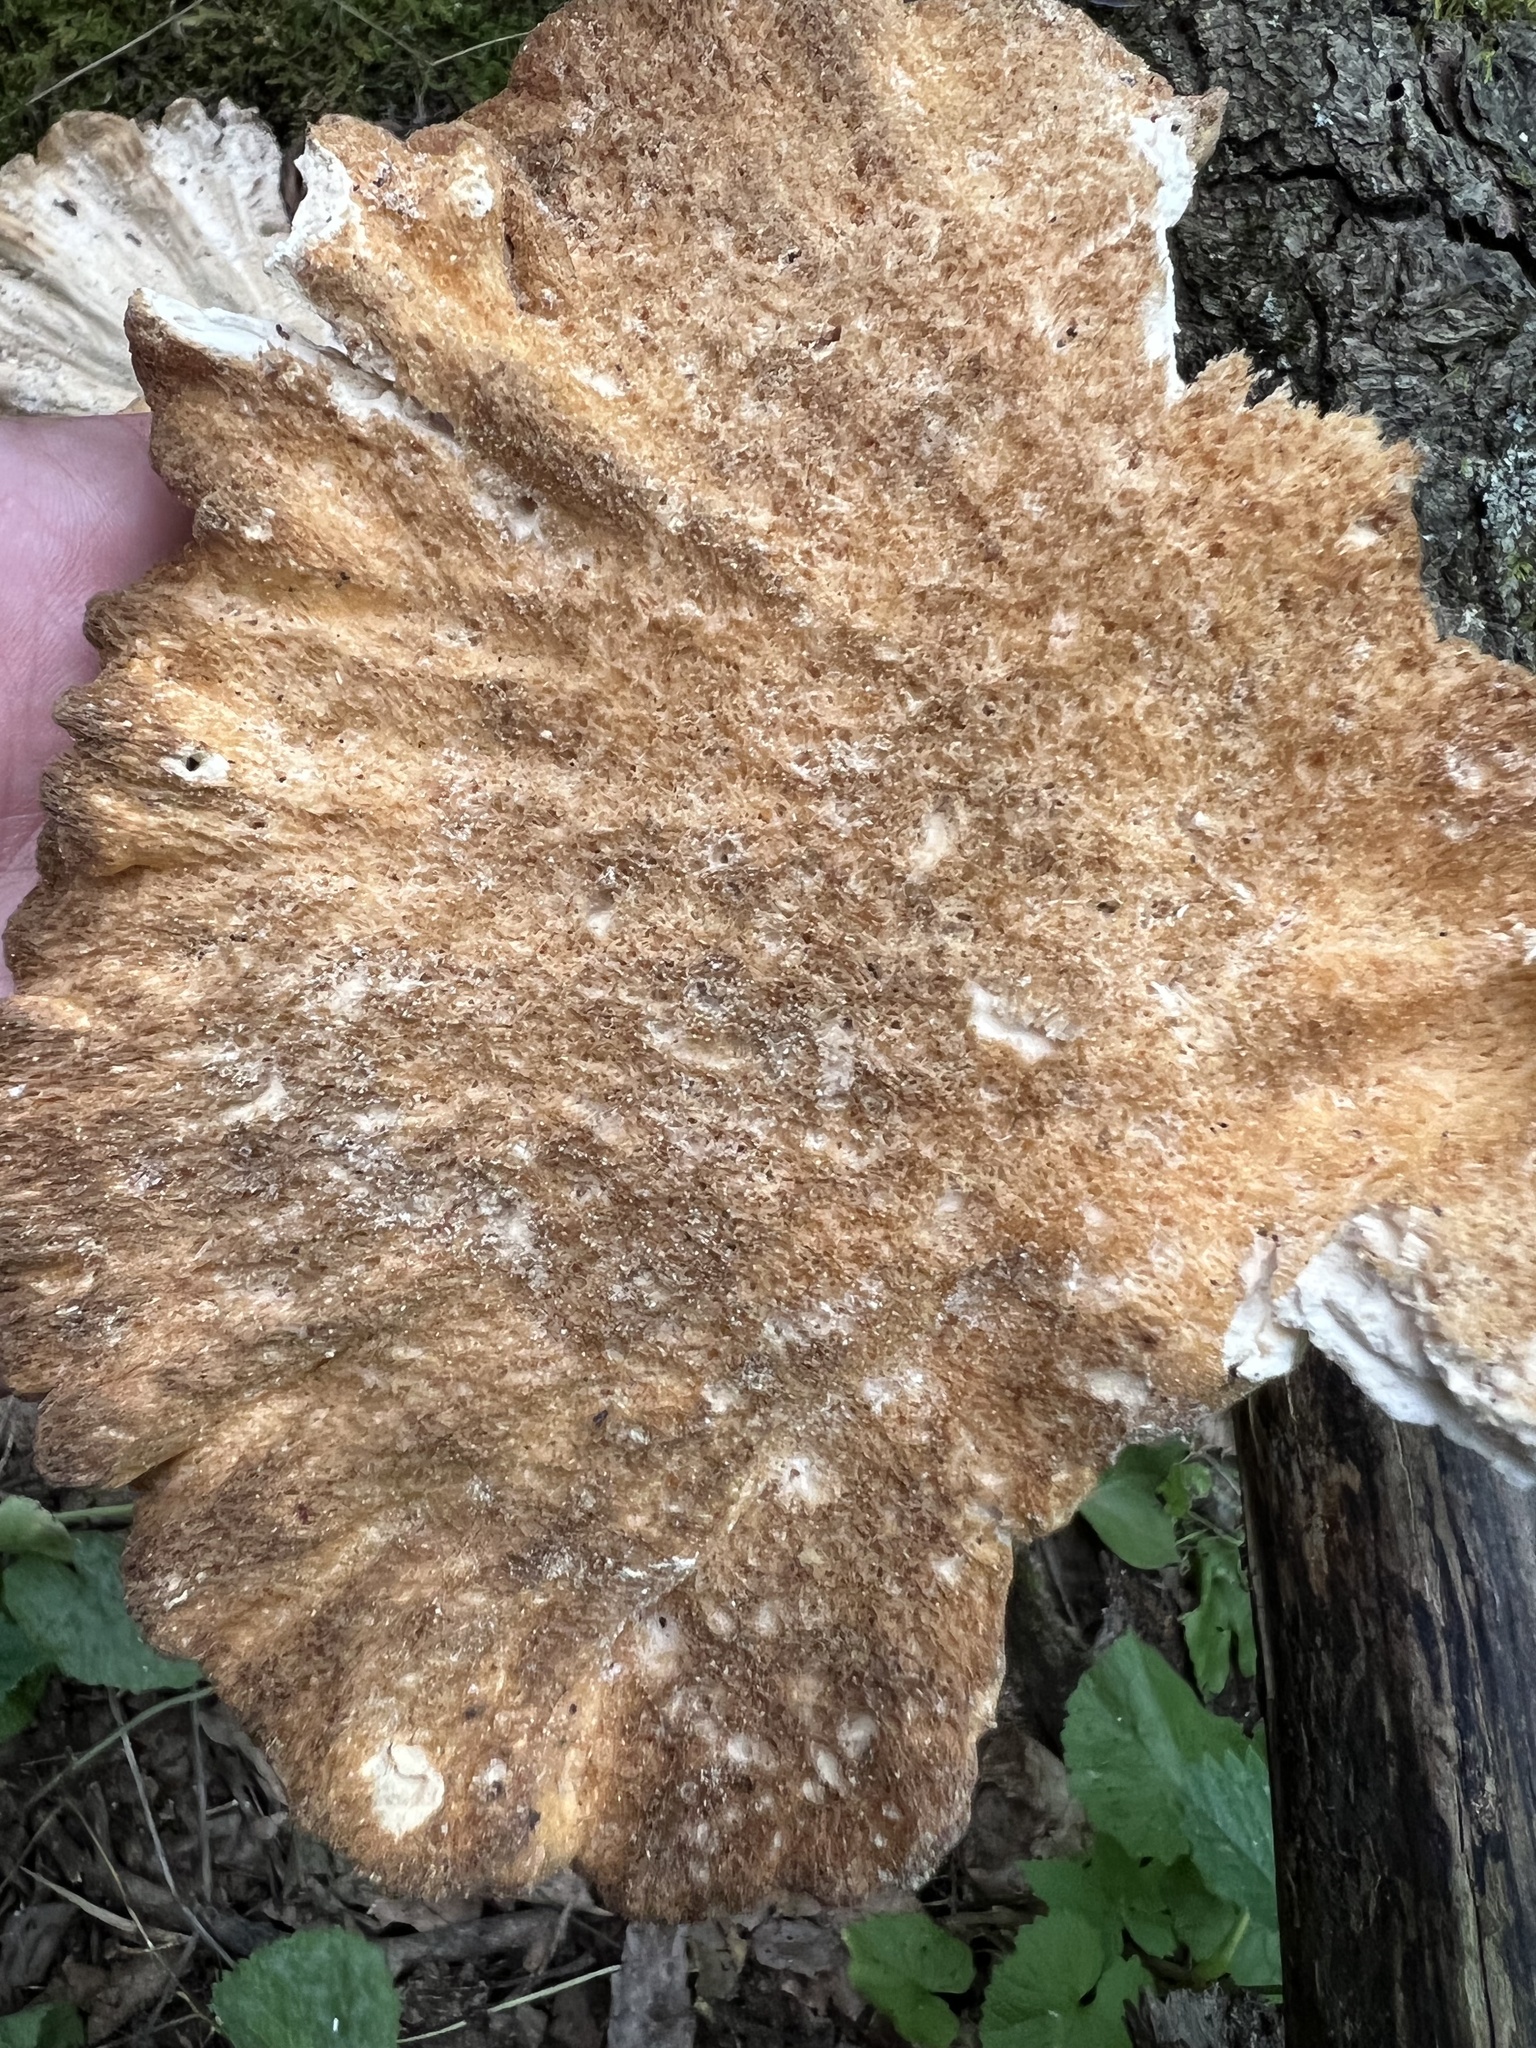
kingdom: Fungi
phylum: Basidiomycota
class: Agaricomycetes
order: Polyporales
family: Laetiporaceae
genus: Laetiporus
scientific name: Laetiporus sulphureus
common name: Chicken of the woods
